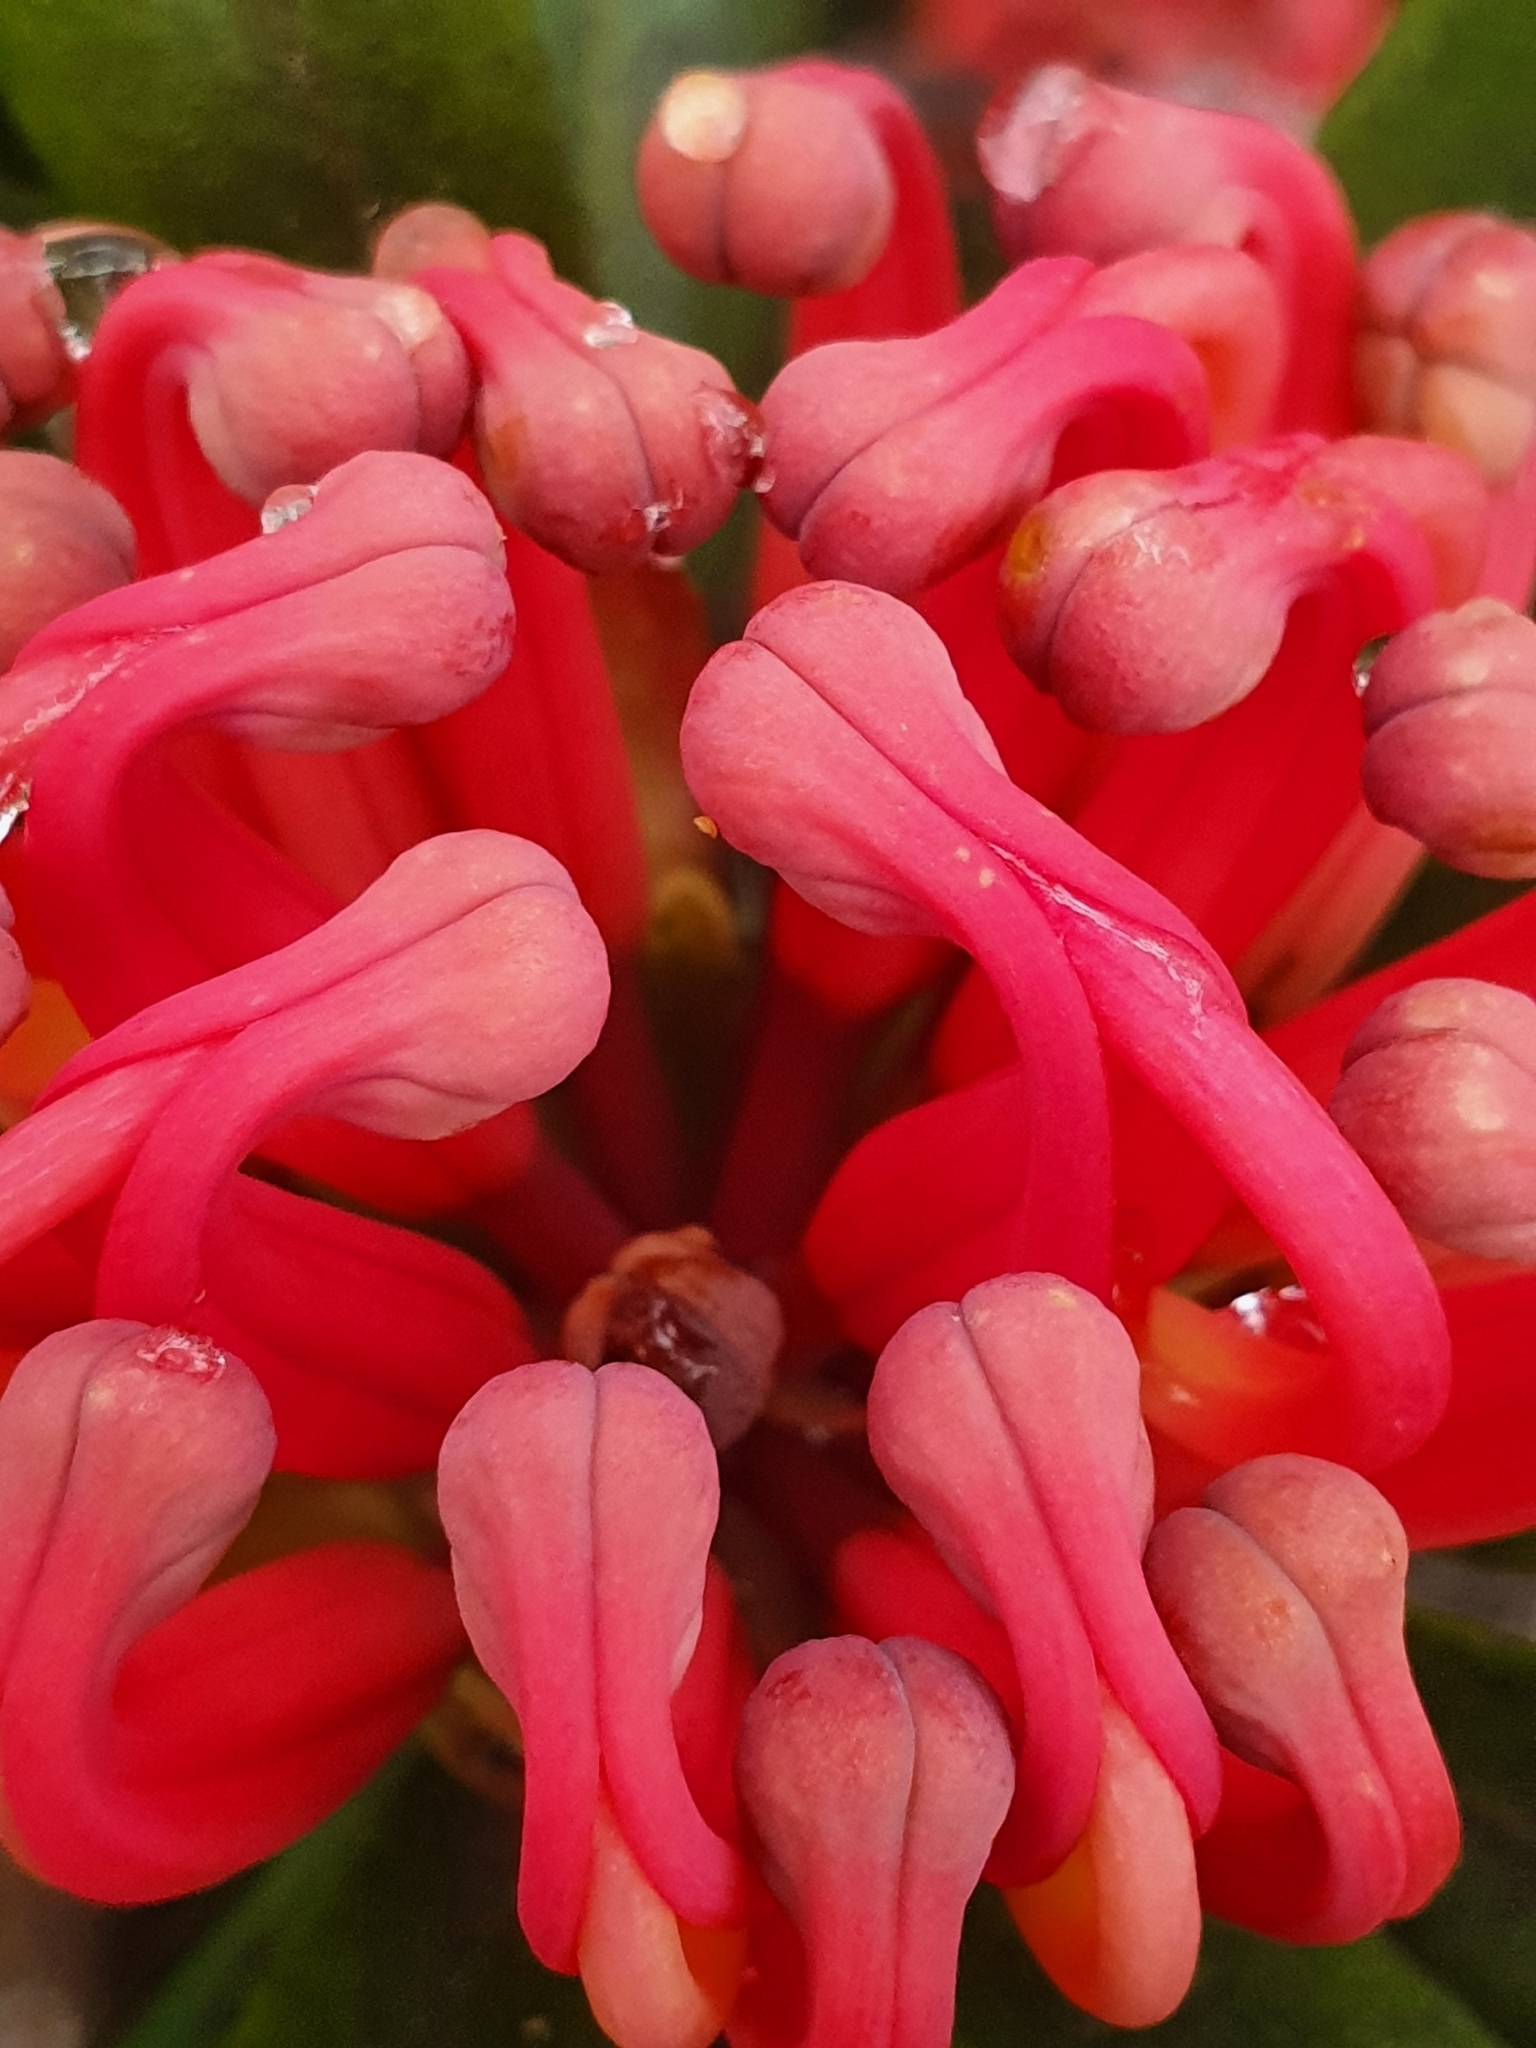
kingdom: Plantae
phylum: Tracheophyta
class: Magnoliopsida
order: Proteales
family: Proteaceae
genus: Telopea
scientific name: Telopea truncata
